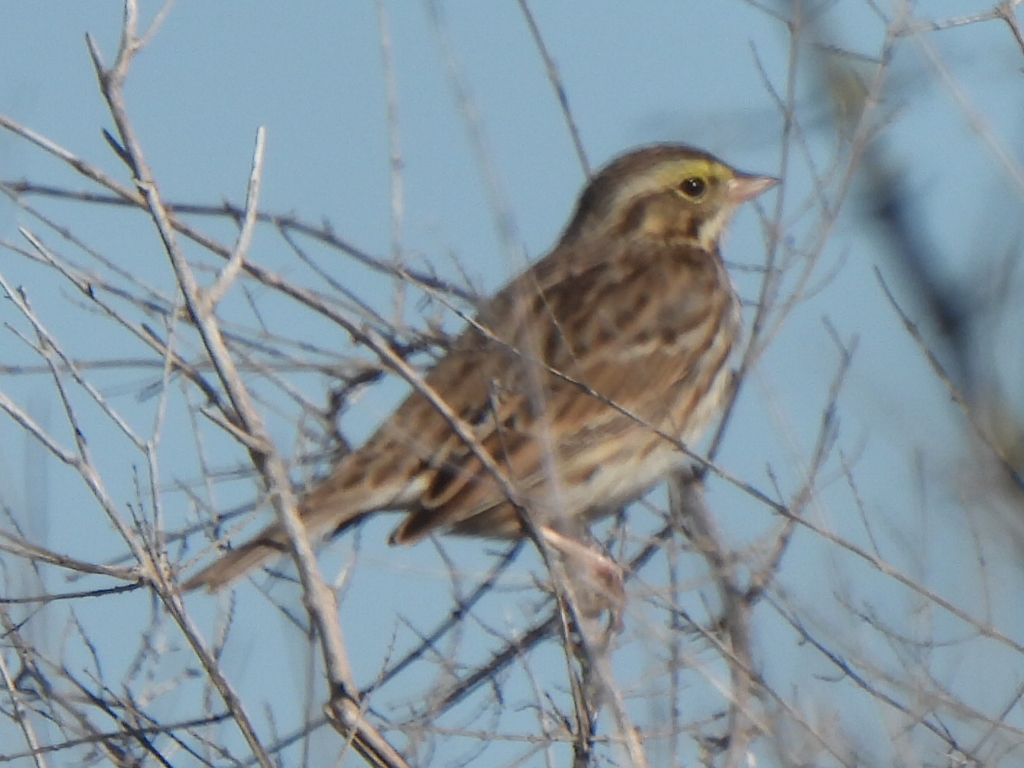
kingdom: Animalia
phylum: Chordata
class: Aves
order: Passeriformes
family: Passerellidae
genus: Passerculus
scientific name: Passerculus sandwichensis
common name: Savannah sparrow
